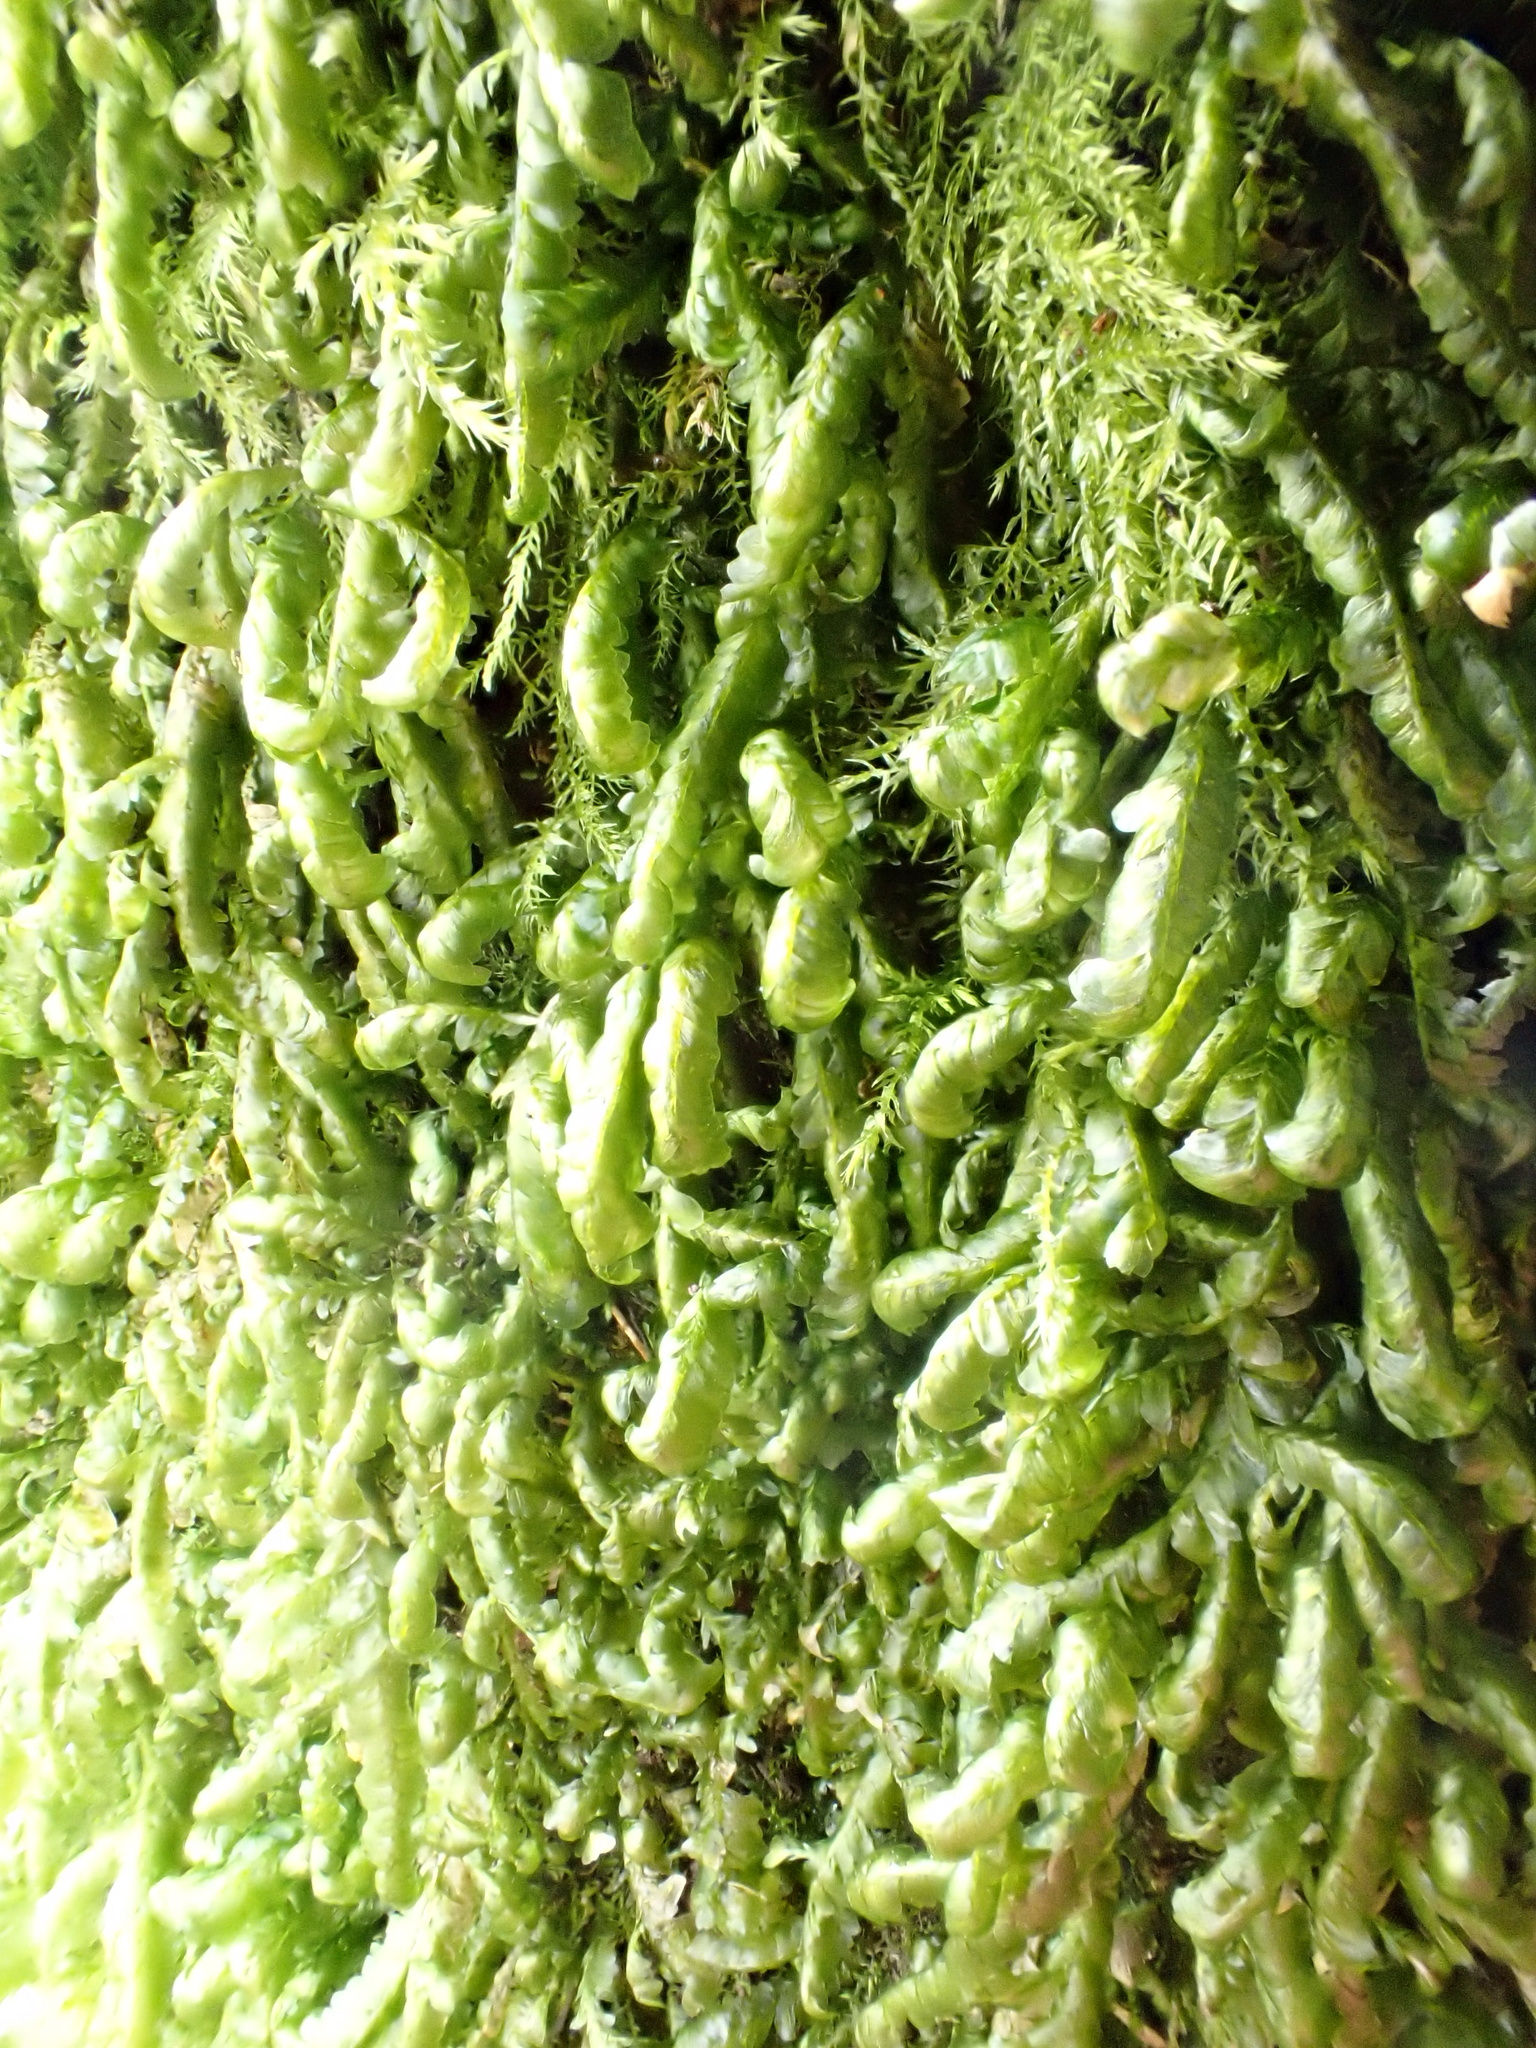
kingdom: Plantae
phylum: Bryophyta
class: Bryopsida
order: Hypnales
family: Neckeraceae
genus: Homalia
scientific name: Homalia trichomanoides
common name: Lime homalia moss
